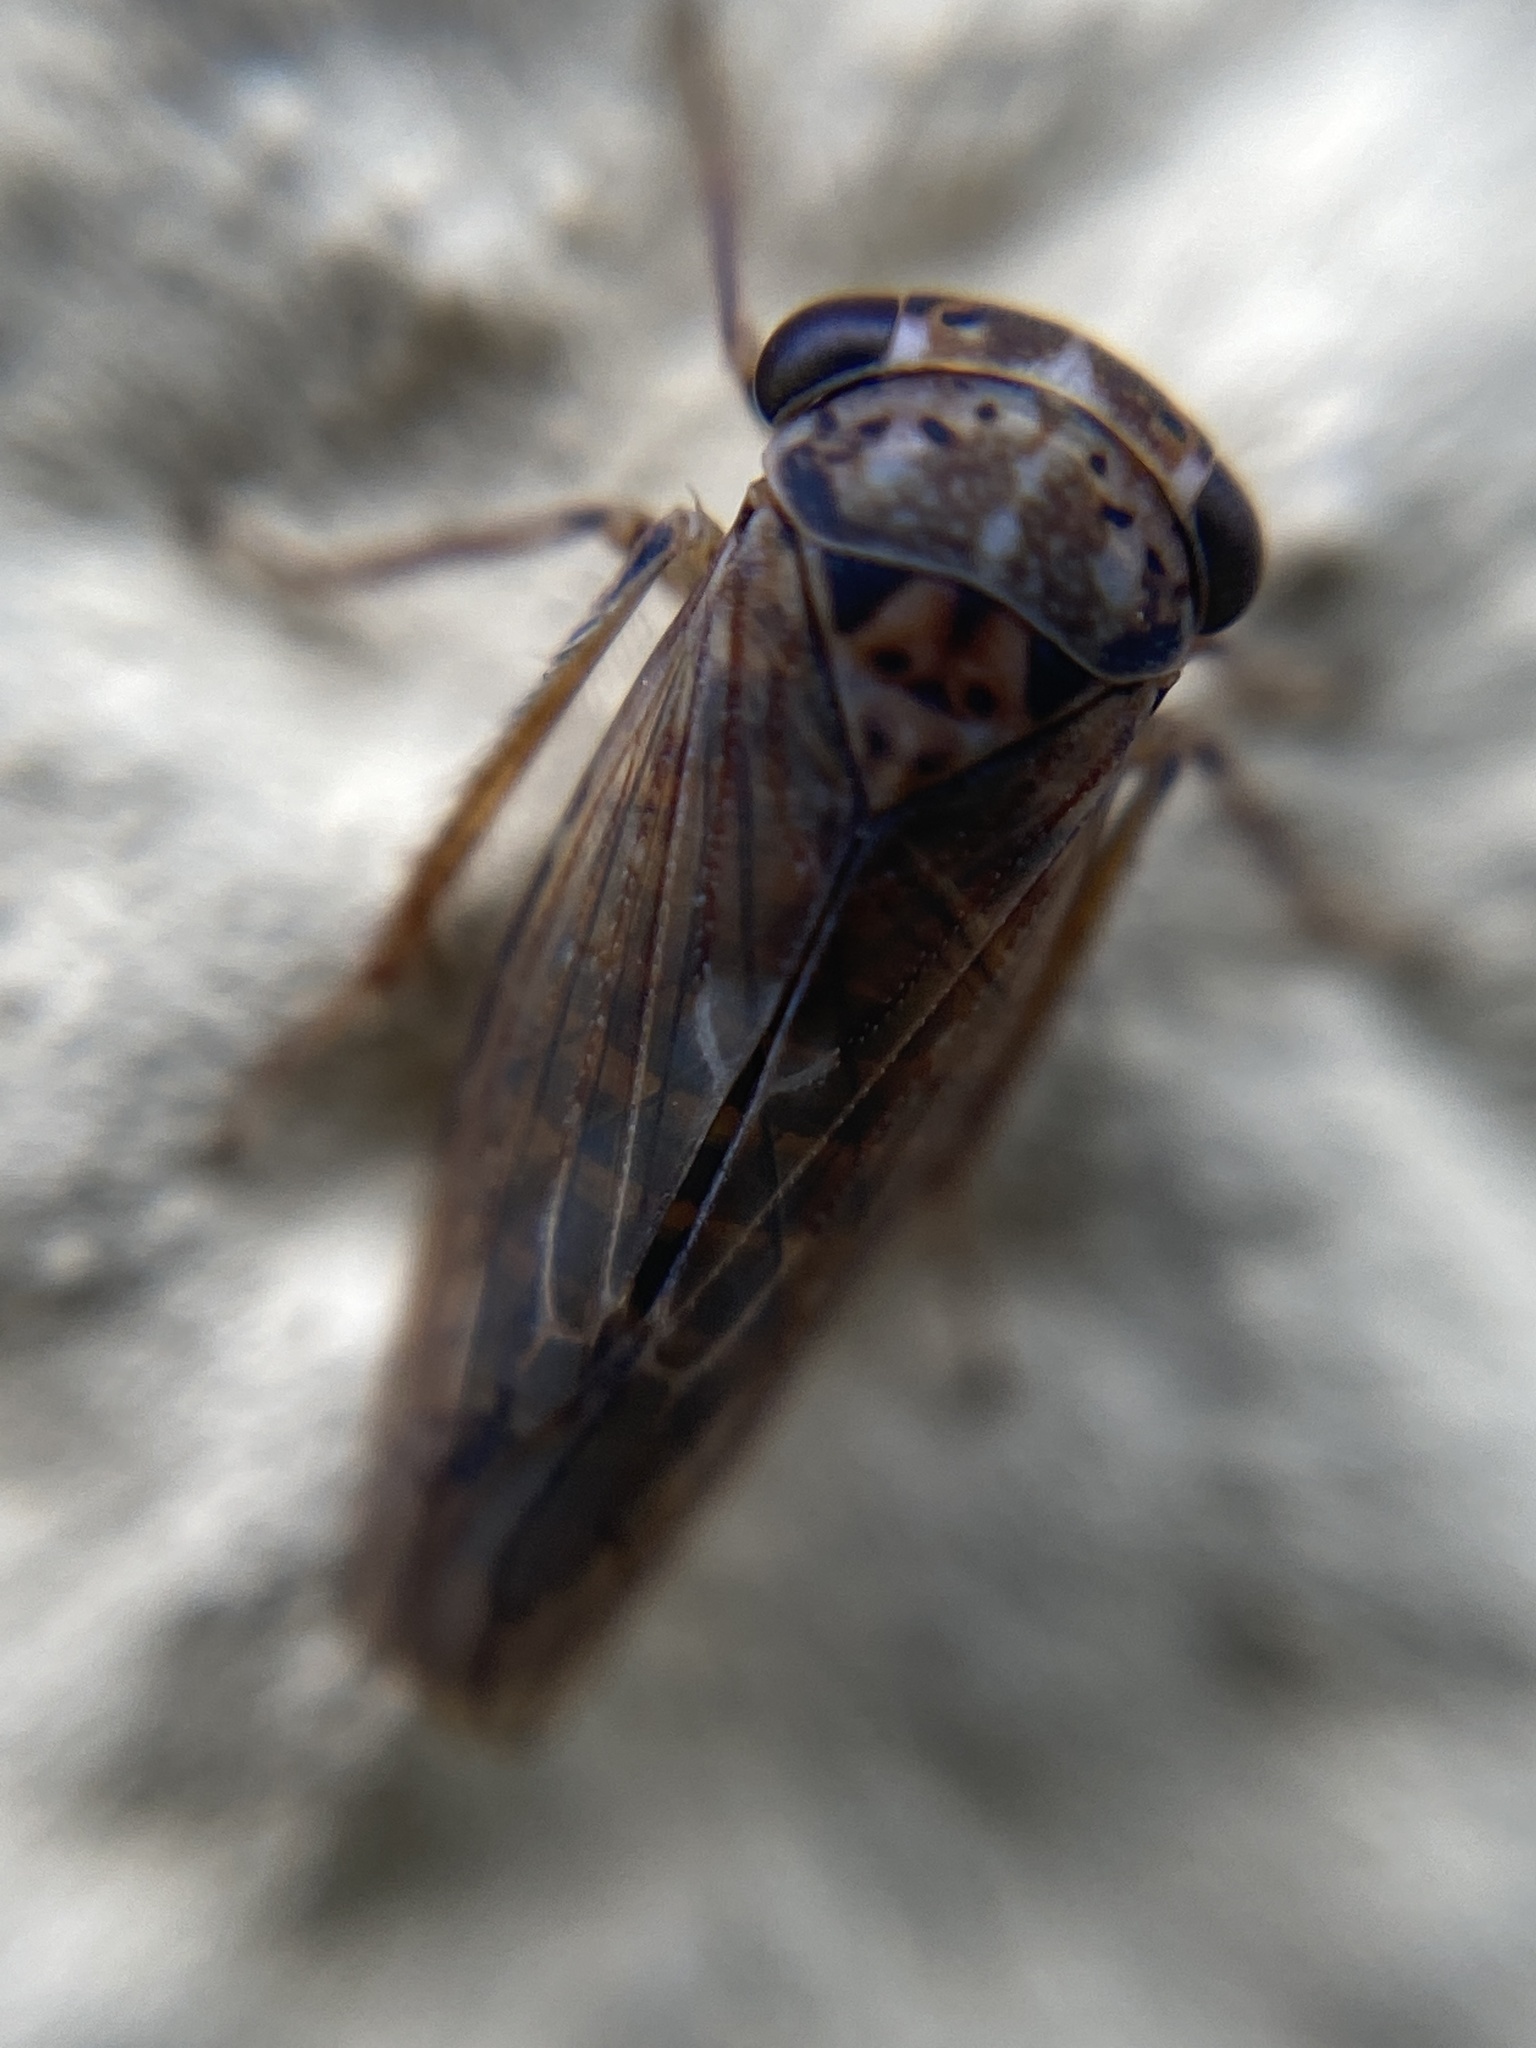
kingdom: Animalia
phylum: Arthropoda
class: Insecta
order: Hemiptera
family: Cicadellidae
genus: Idiocerus
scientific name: Idiocerus stigmaticalis
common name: Leafhopper
